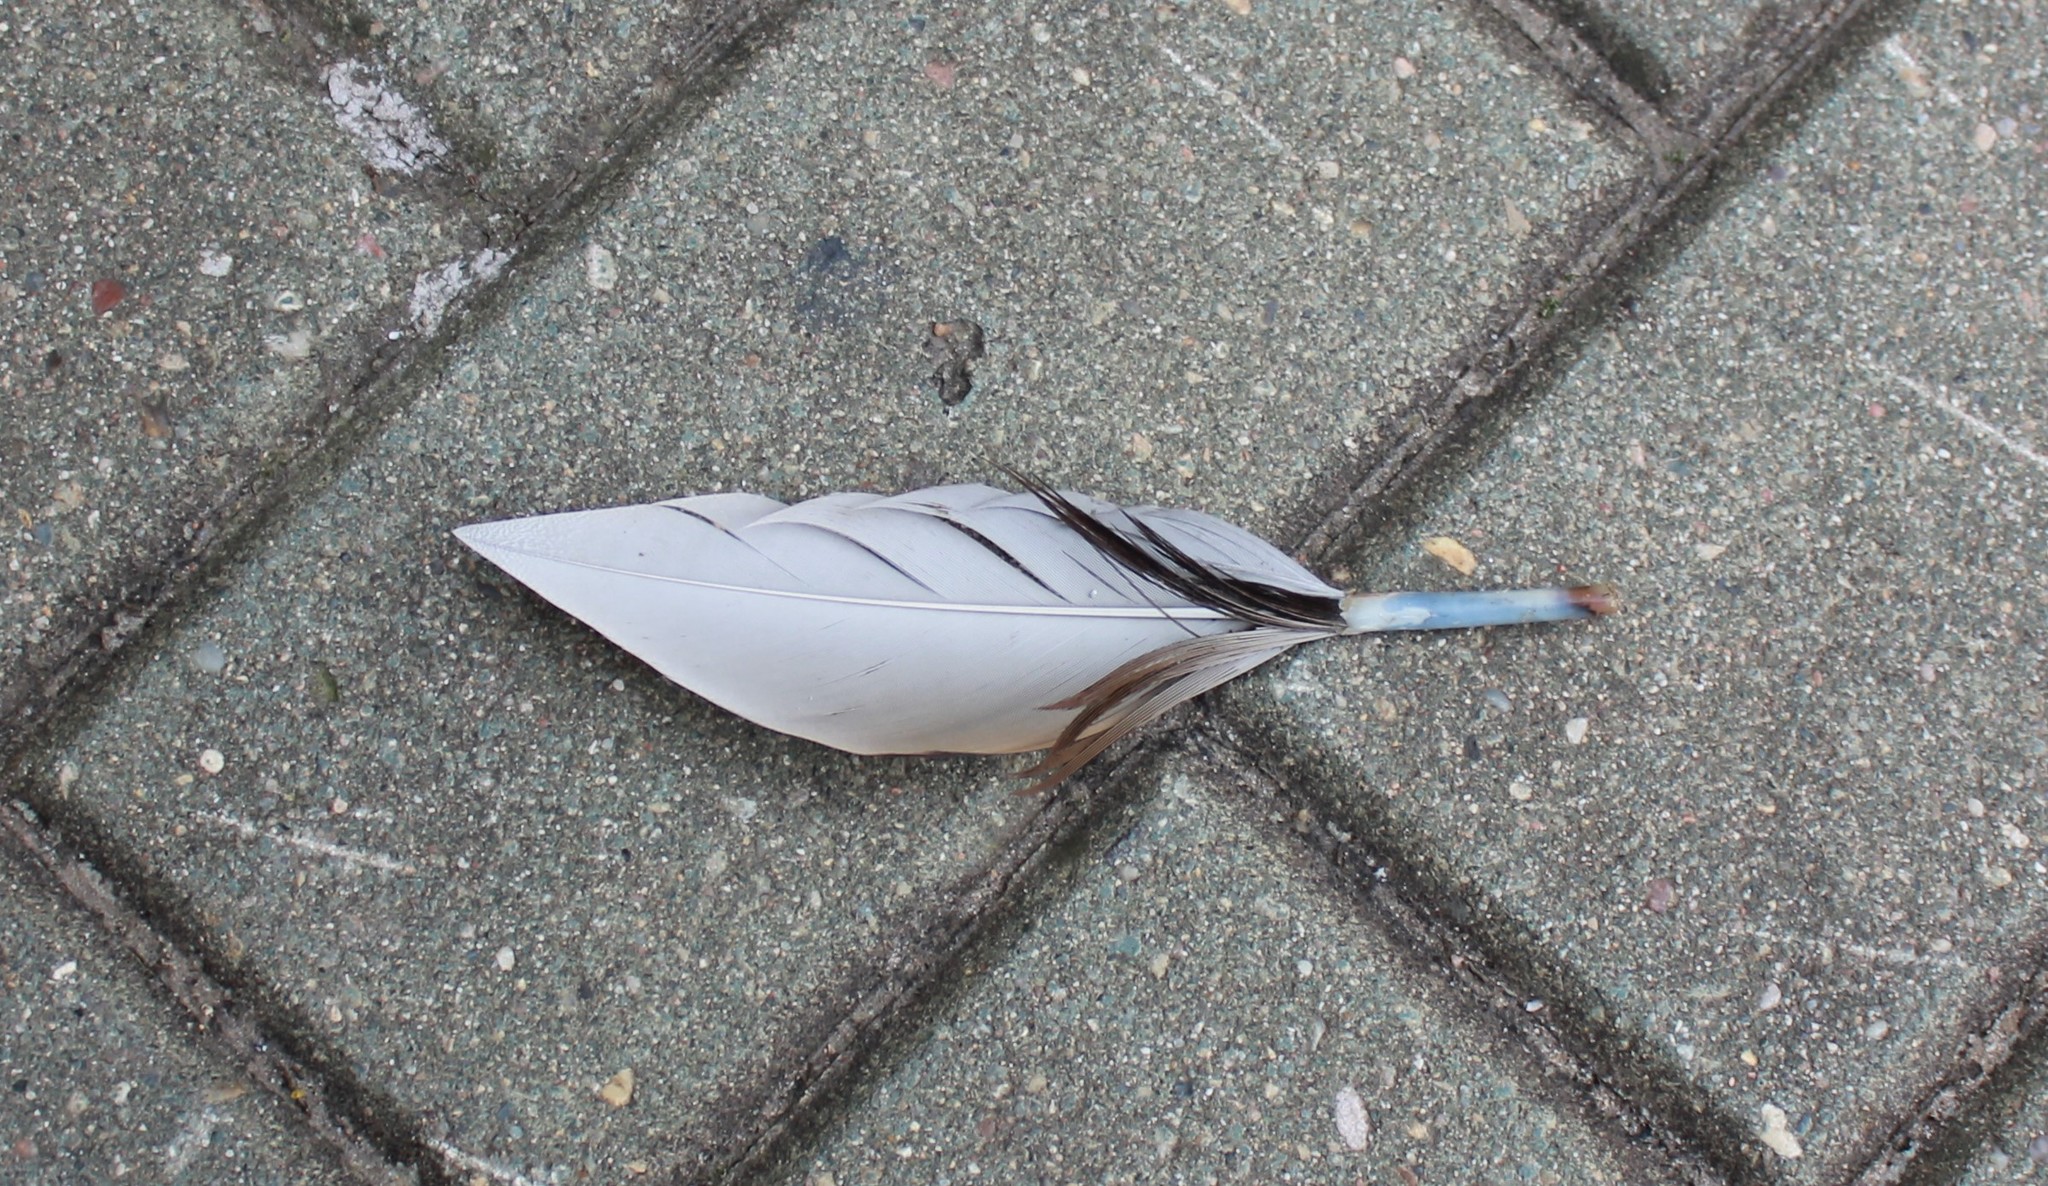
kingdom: Animalia
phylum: Chordata
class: Aves
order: Anseriformes
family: Anatidae
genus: Anas
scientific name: Anas platyrhynchos
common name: Mallard
